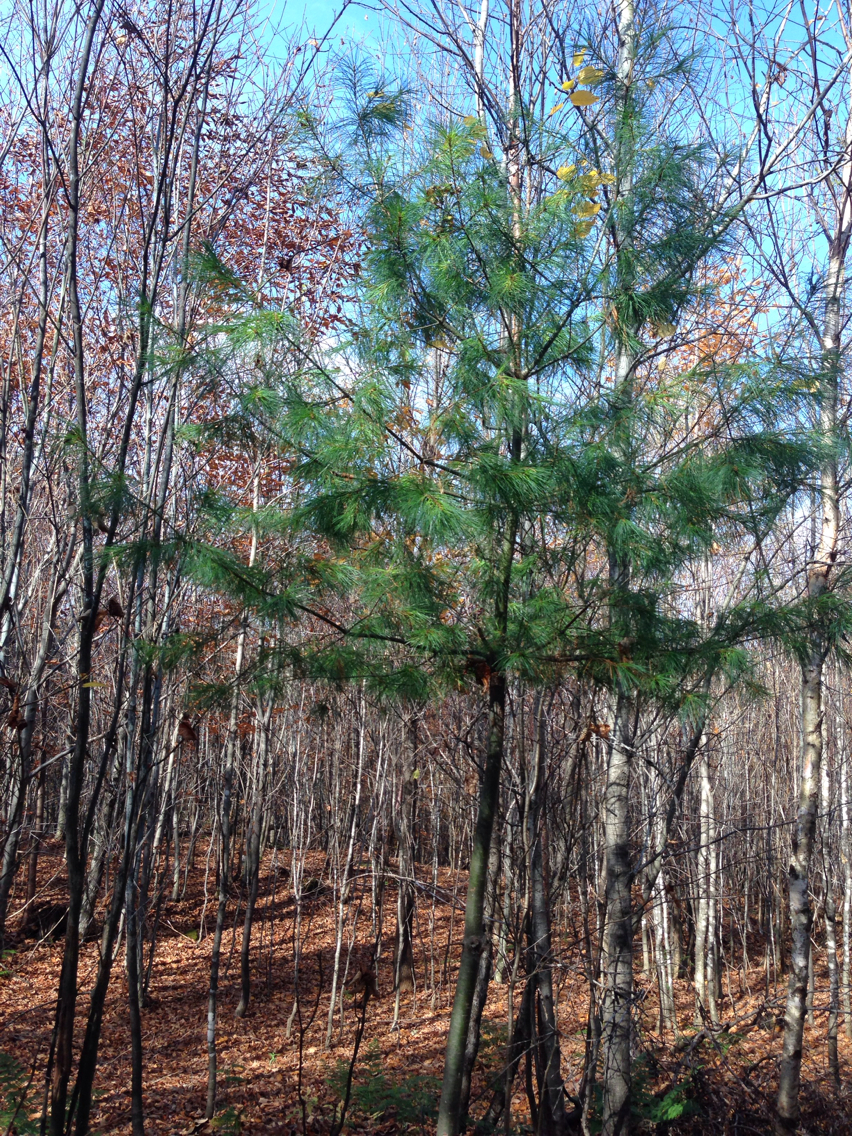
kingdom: Plantae
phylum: Tracheophyta
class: Pinopsida
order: Pinales
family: Pinaceae
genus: Pinus
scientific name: Pinus strobus
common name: Weymouth pine
